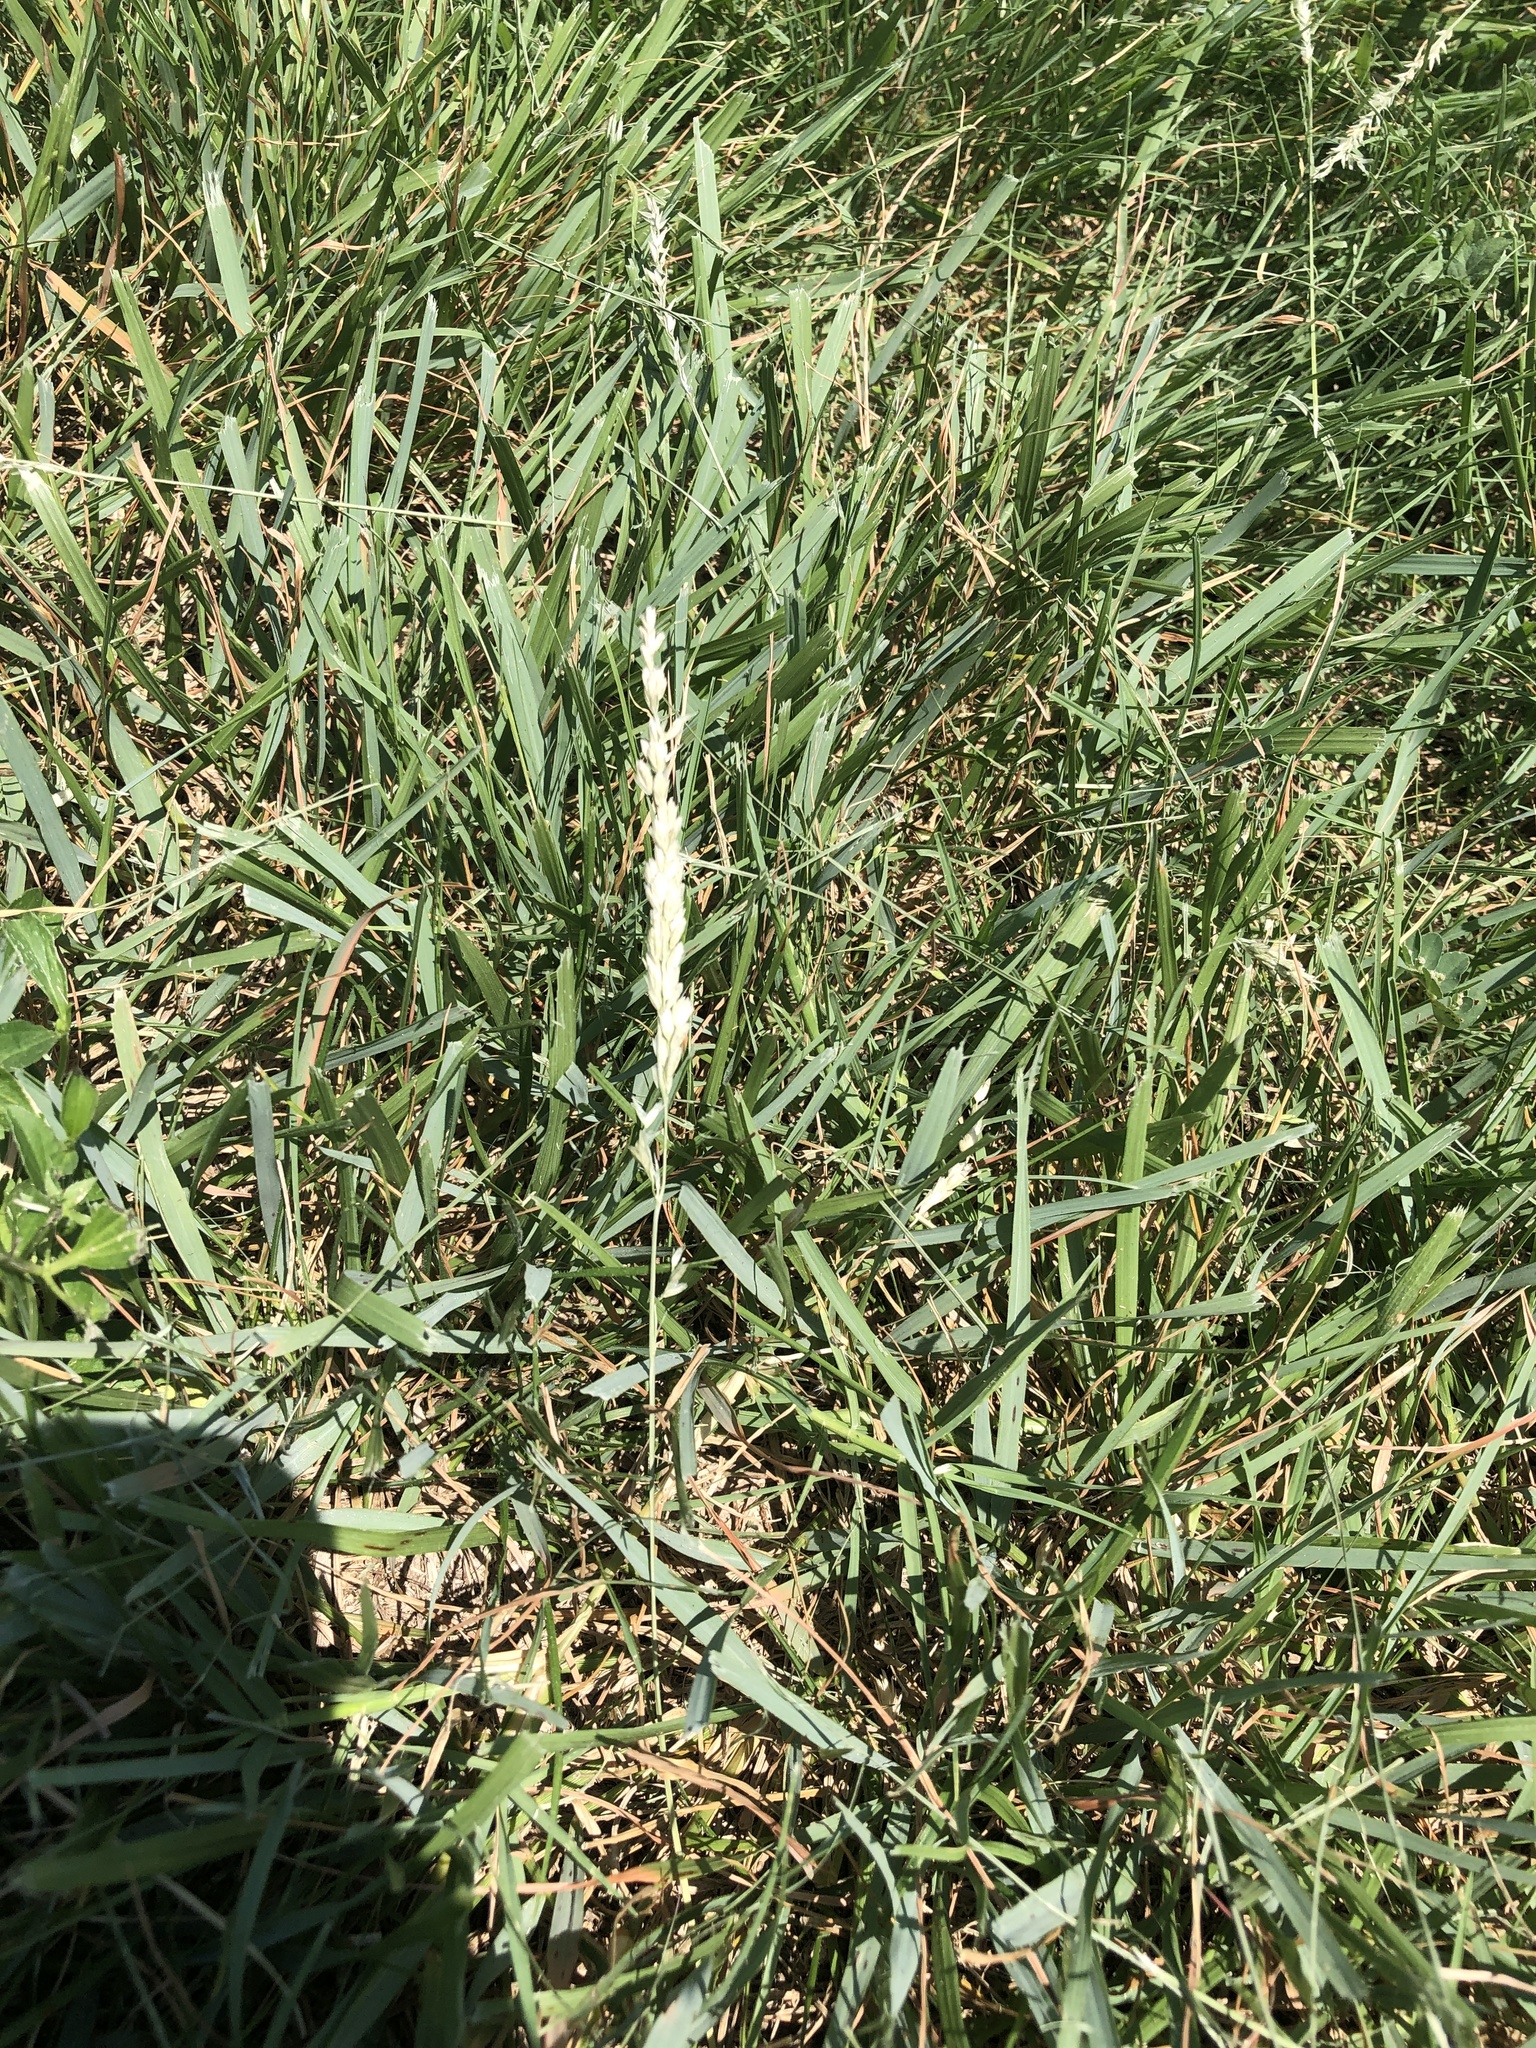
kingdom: Plantae
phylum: Tracheophyta
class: Liliopsida
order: Poales
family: Poaceae
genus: Tridens
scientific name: Tridens albescens
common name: White tridens
